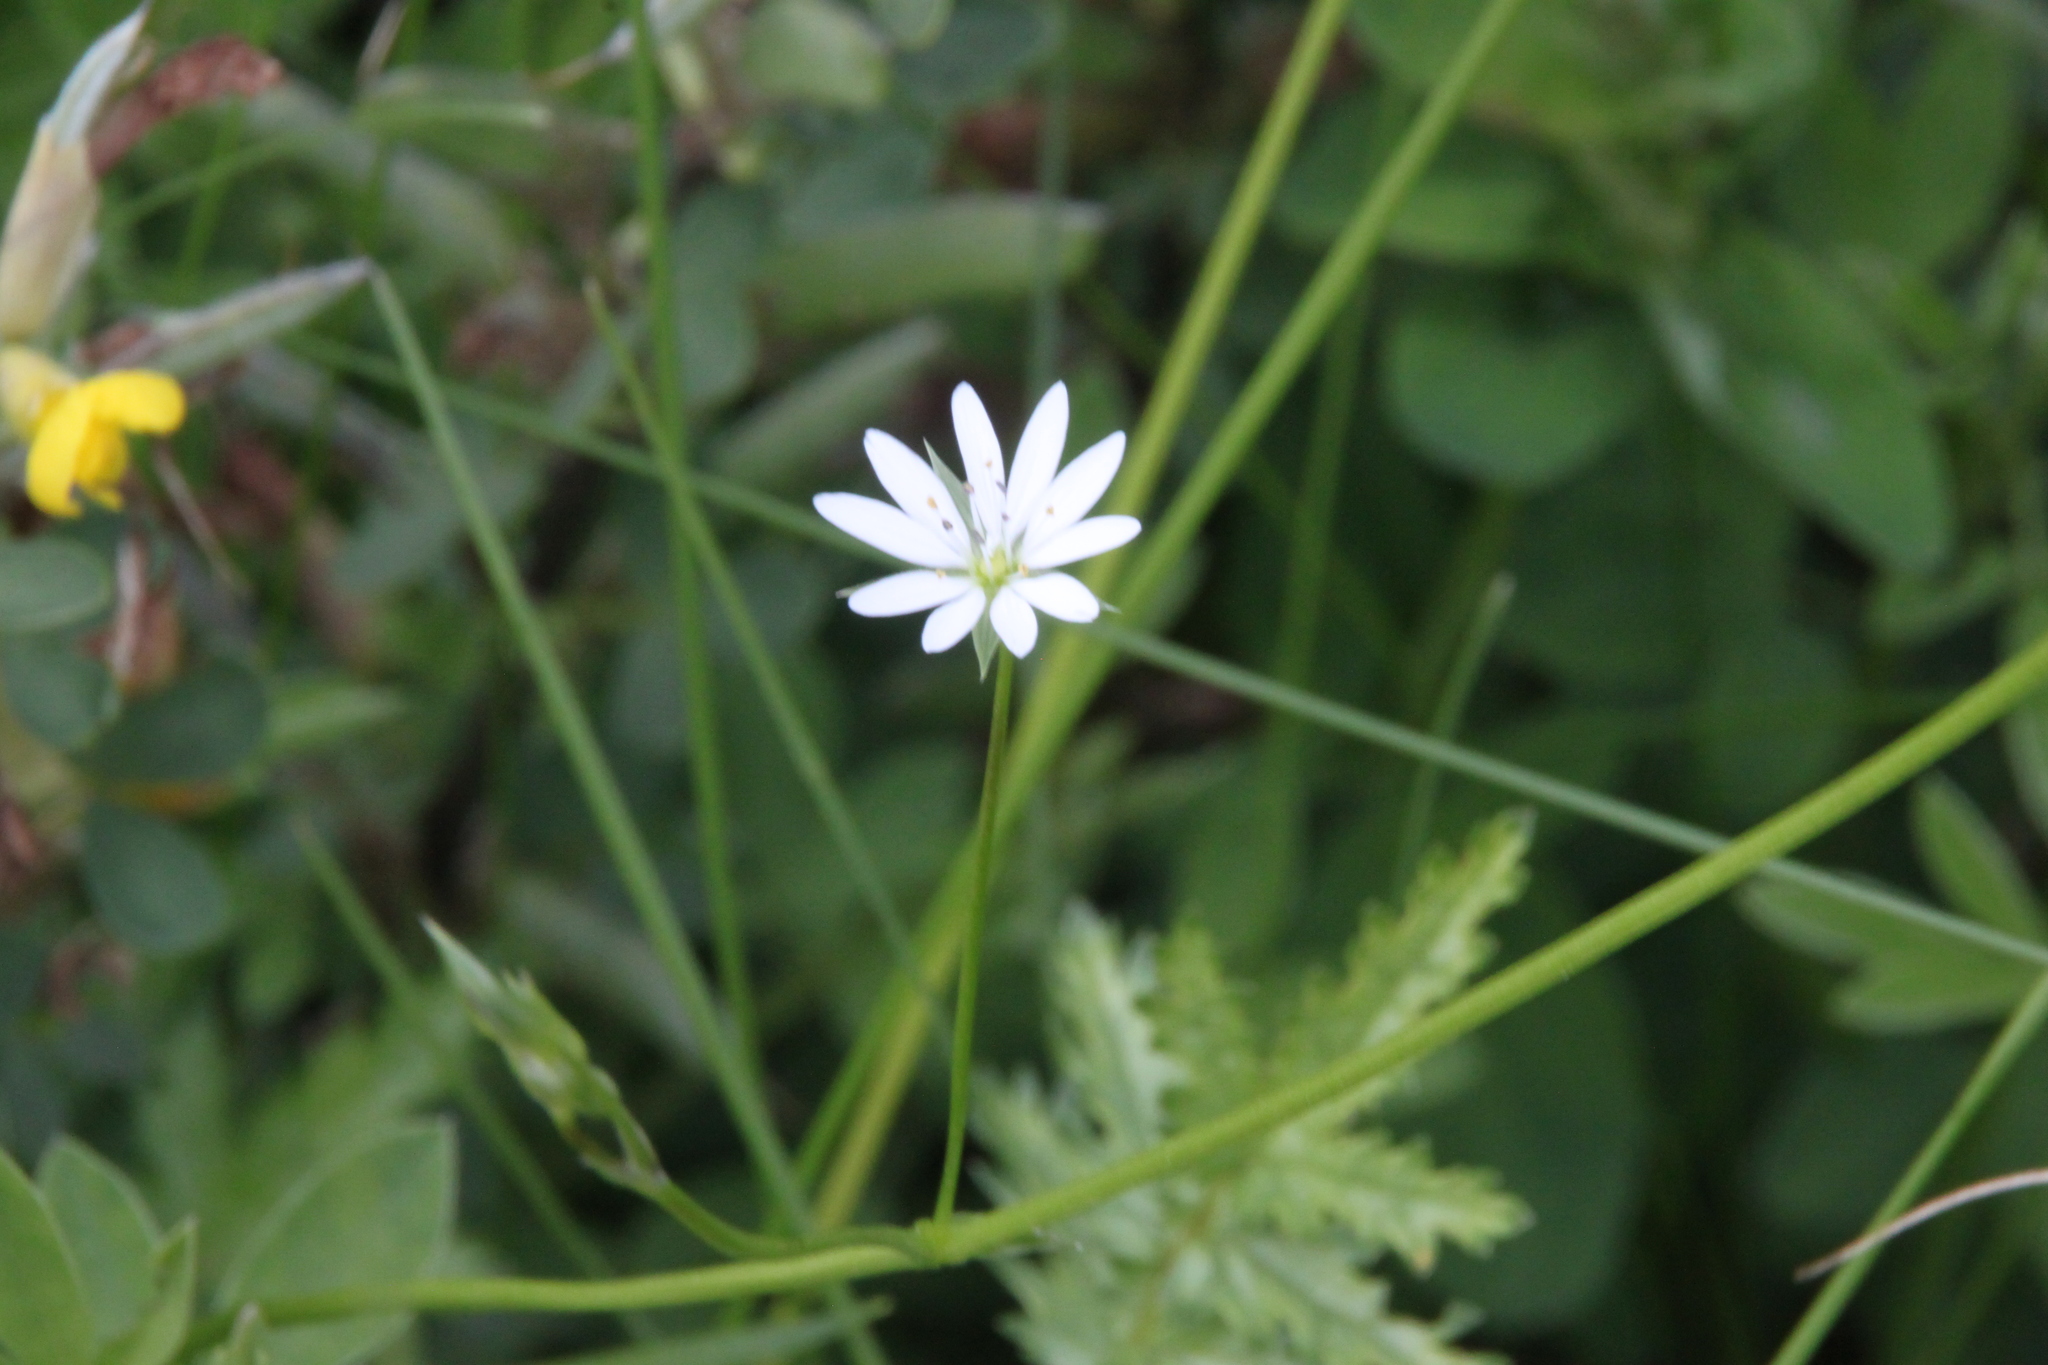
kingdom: Plantae
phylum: Tracheophyta
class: Magnoliopsida
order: Caryophyllales
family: Caryophyllaceae
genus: Stellaria
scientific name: Stellaria graminea
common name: Grass-like starwort
